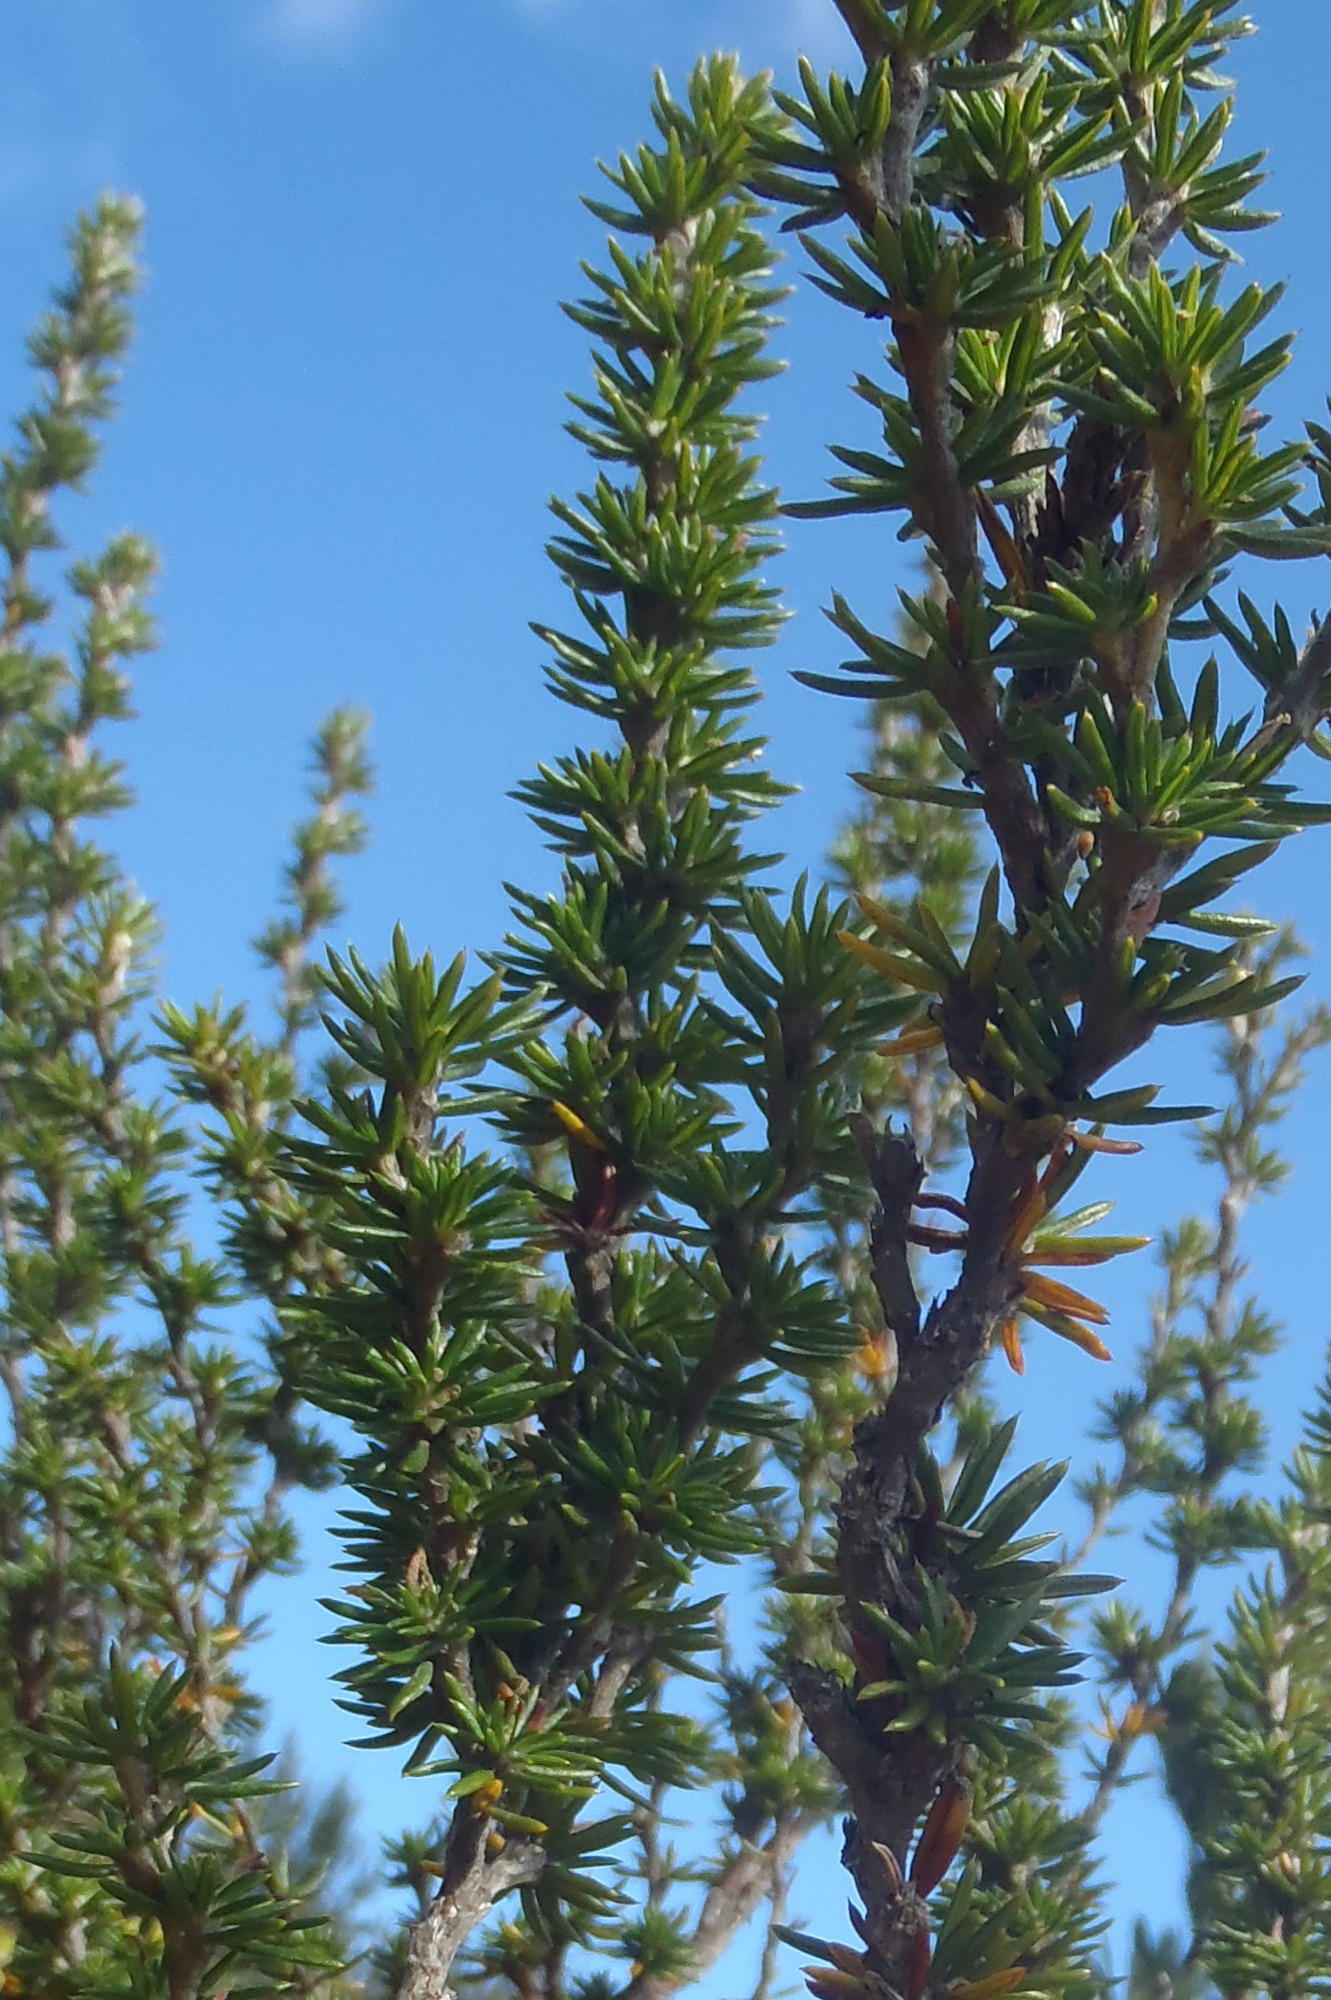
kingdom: Plantae
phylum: Tracheophyta
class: Magnoliopsida
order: Rosales
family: Rosaceae
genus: Cliffortia
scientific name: Cliffortia stricta
